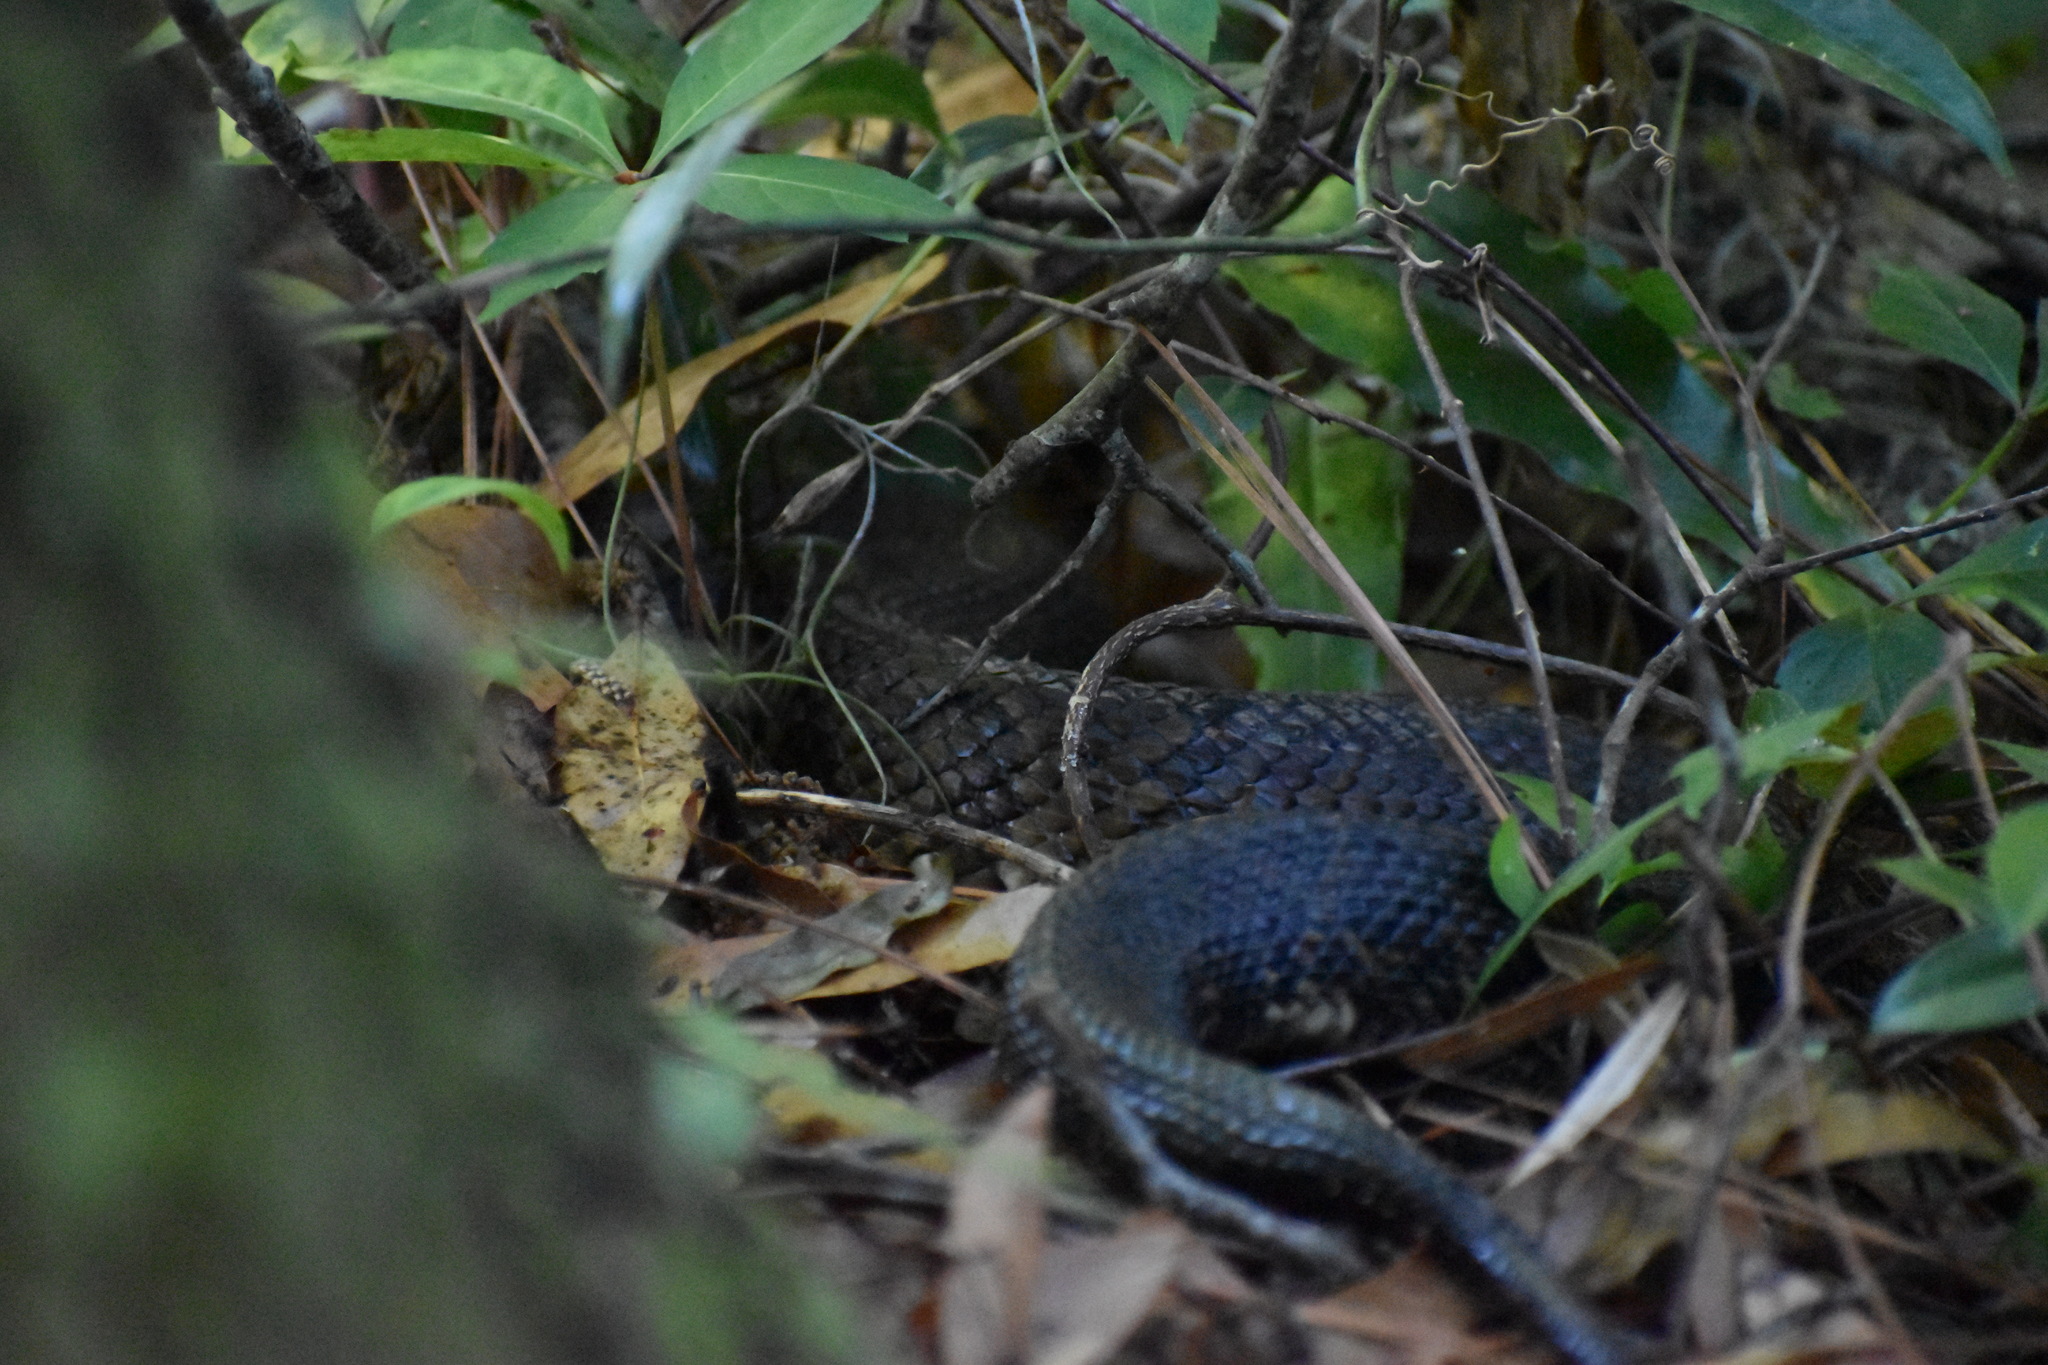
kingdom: Animalia
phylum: Chordata
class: Squamata
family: Viperidae
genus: Agkistrodon
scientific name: Agkistrodon conanti
